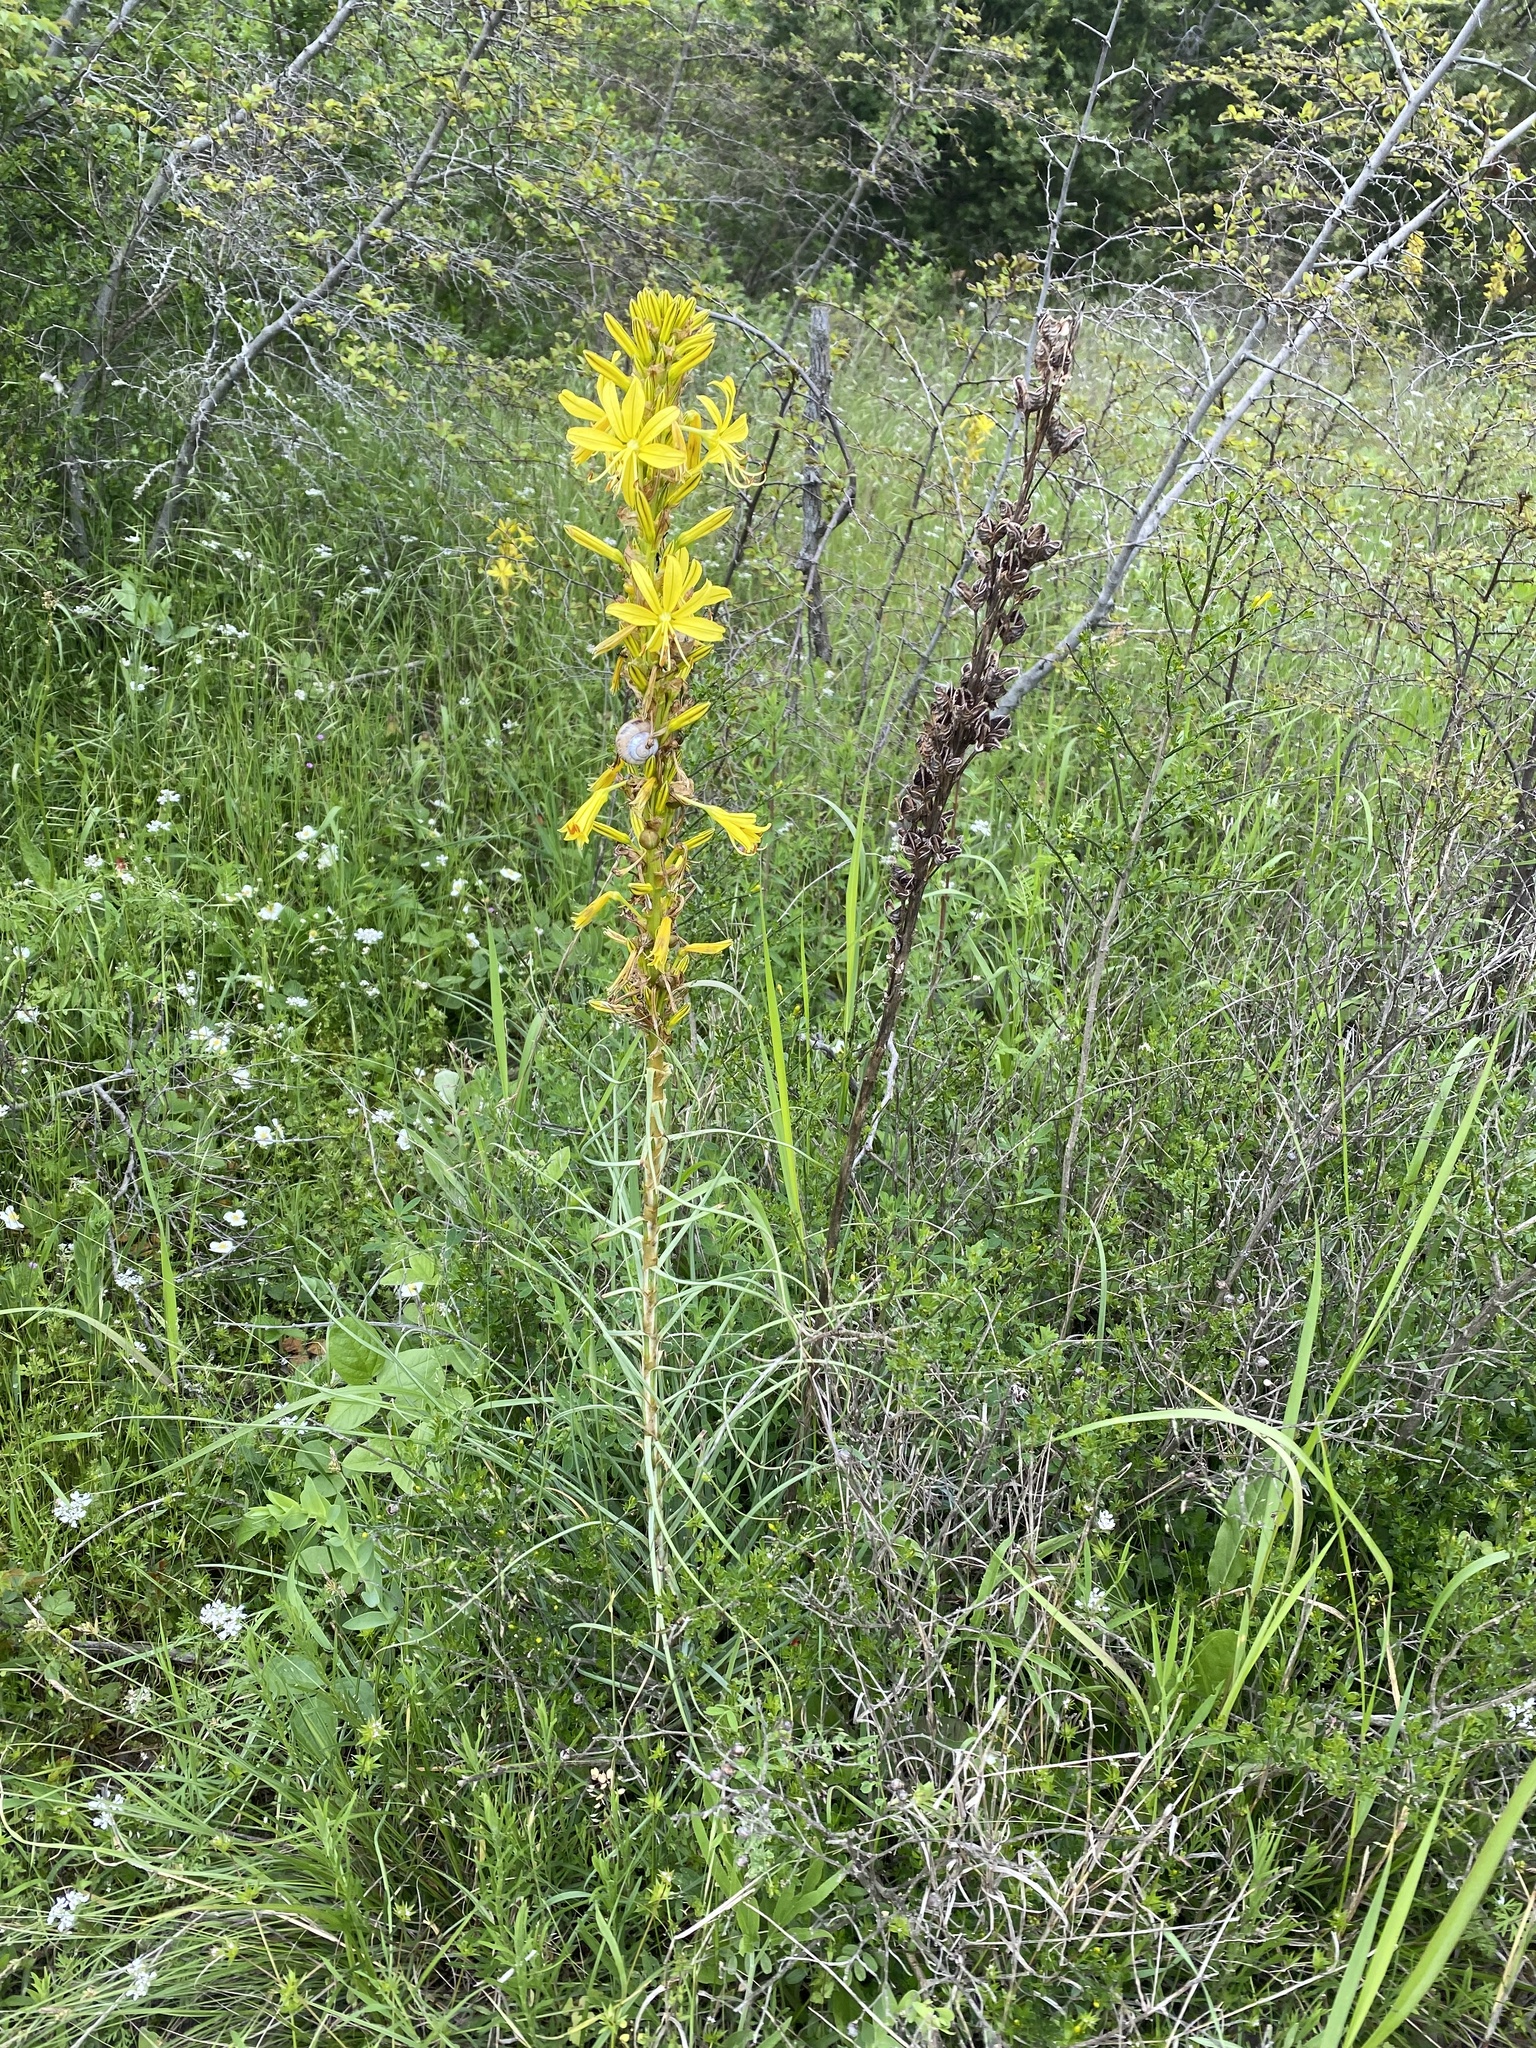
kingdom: Plantae
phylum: Tracheophyta
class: Liliopsida
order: Asparagales
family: Asphodelaceae
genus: Asphodeline
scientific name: Asphodeline lutea
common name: Yellow asphodel
